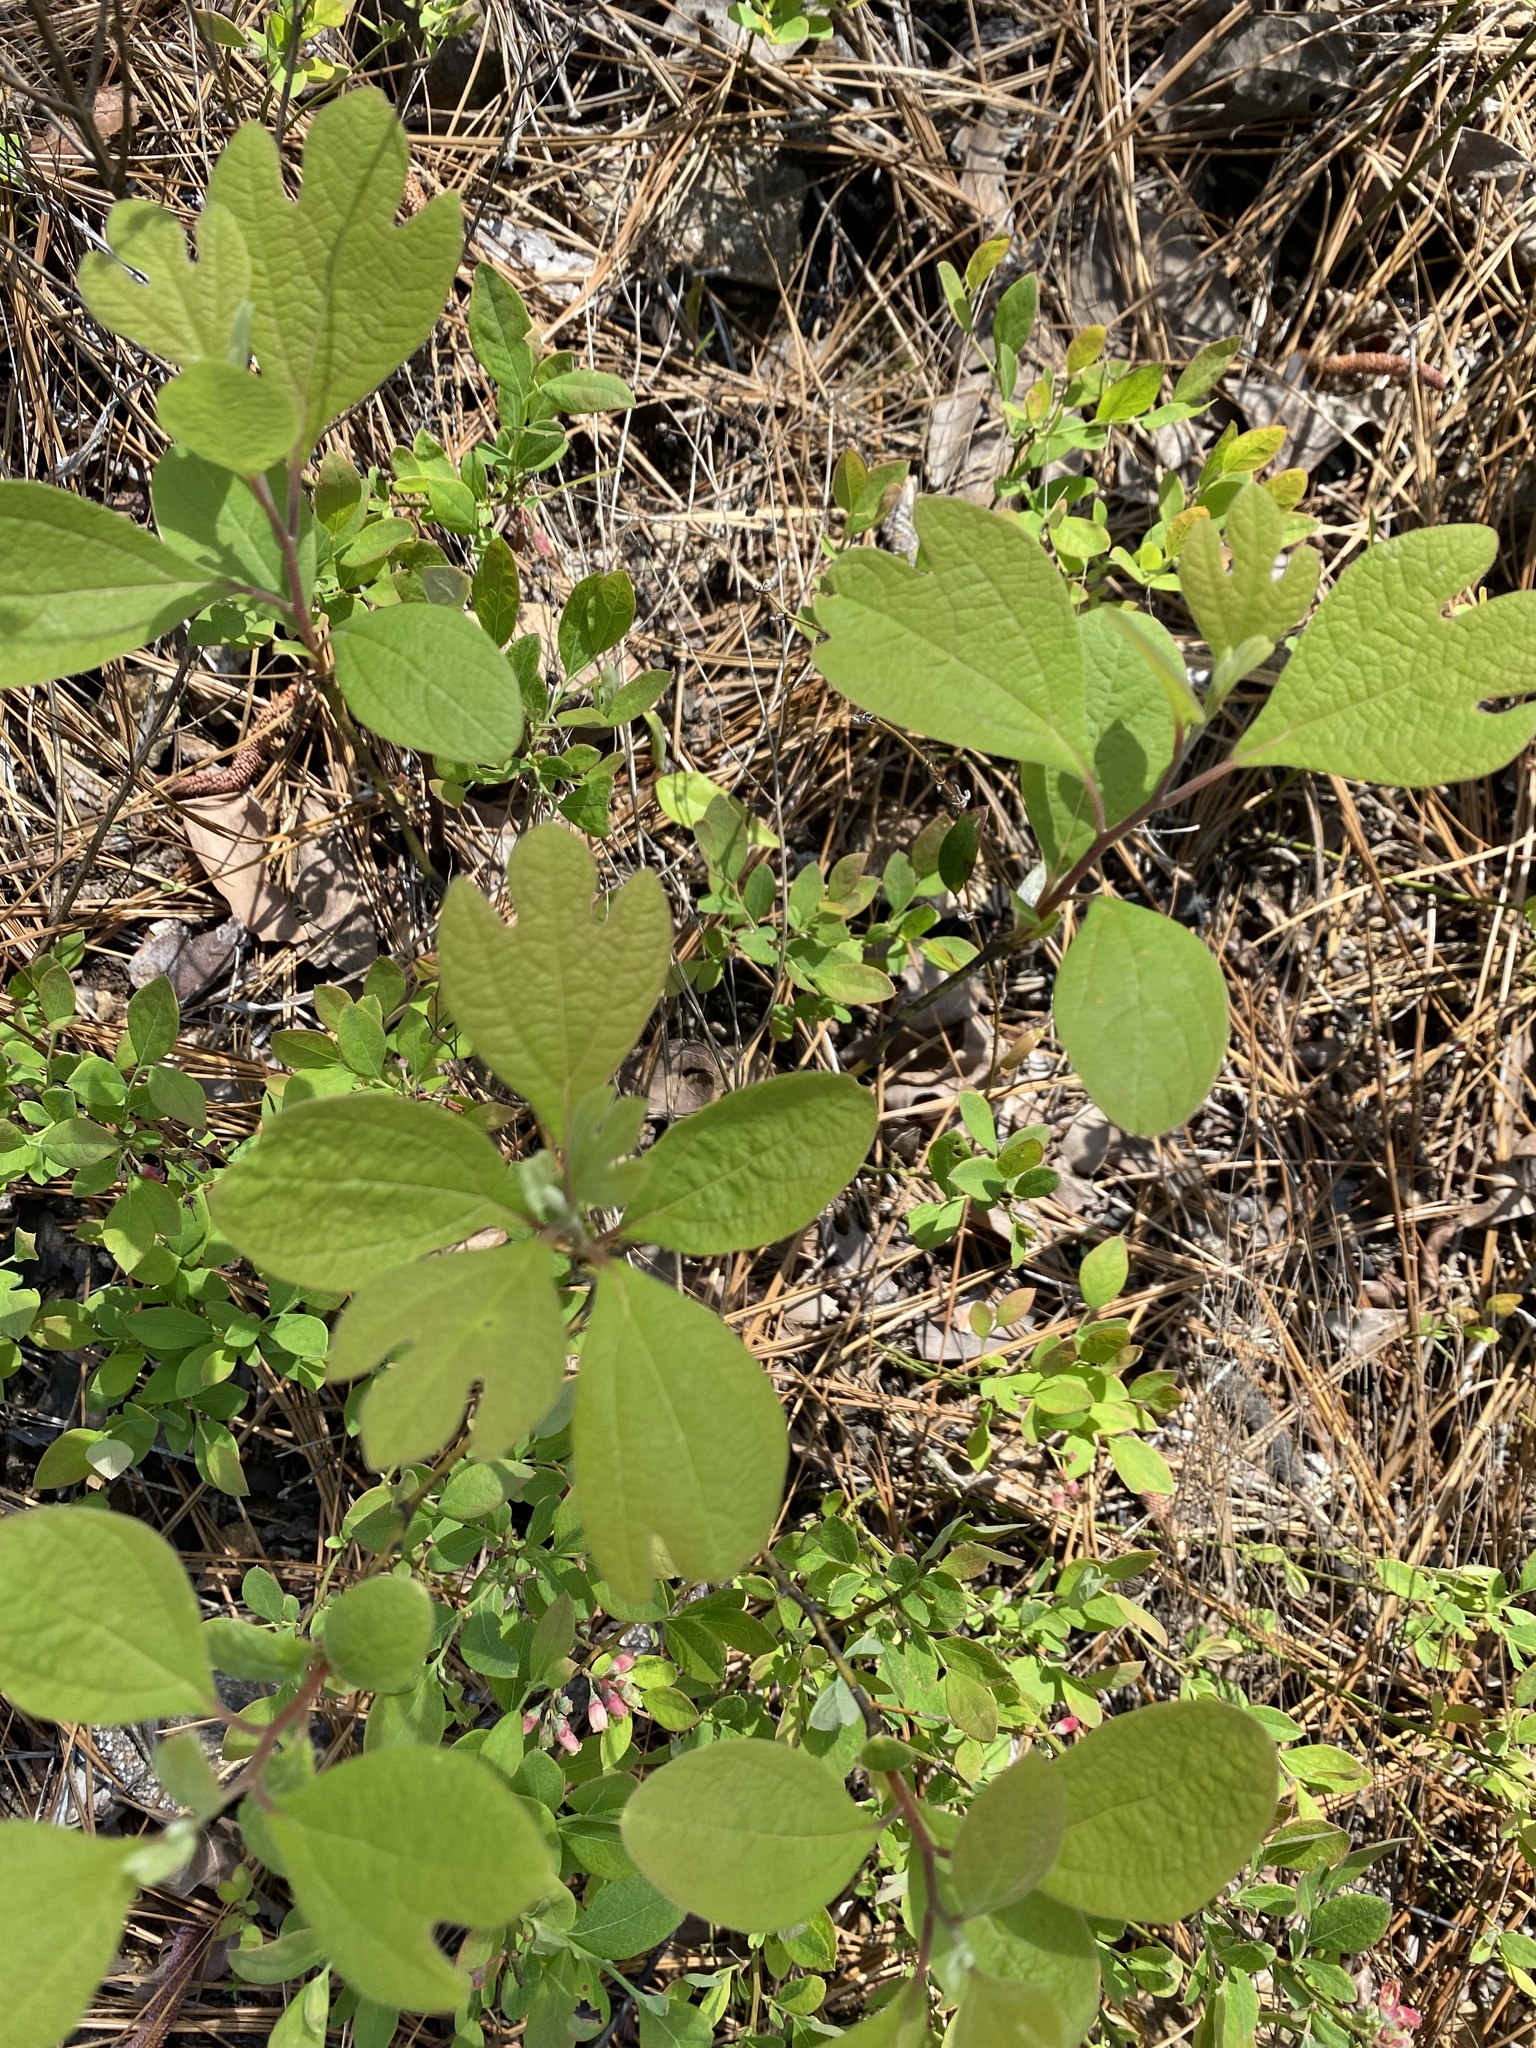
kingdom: Plantae
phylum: Tracheophyta
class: Magnoliopsida
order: Laurales
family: Lauraceae
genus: Sassafras
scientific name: Sassafras albidum
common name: Sassafras
